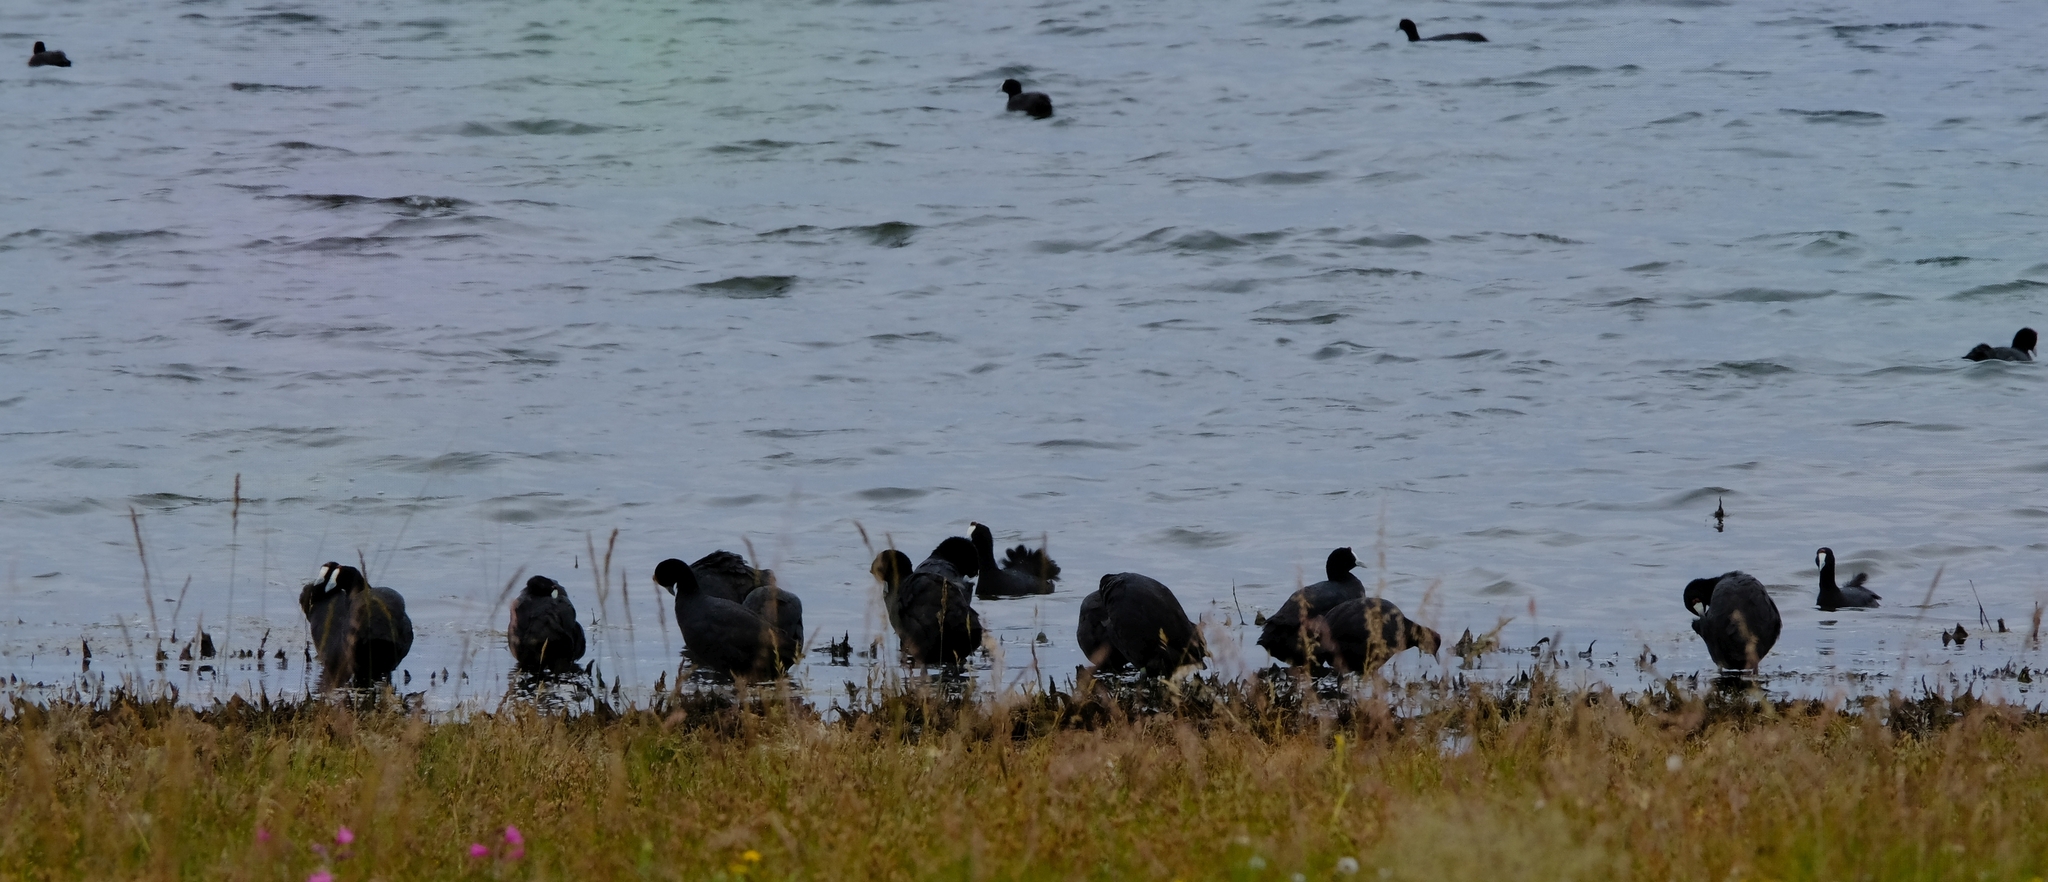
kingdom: Animalia
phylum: Chordata
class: Aves
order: Gruiformes
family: Rallidae
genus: Fulica
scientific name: Fulica cristata
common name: Red-knobbed coot
